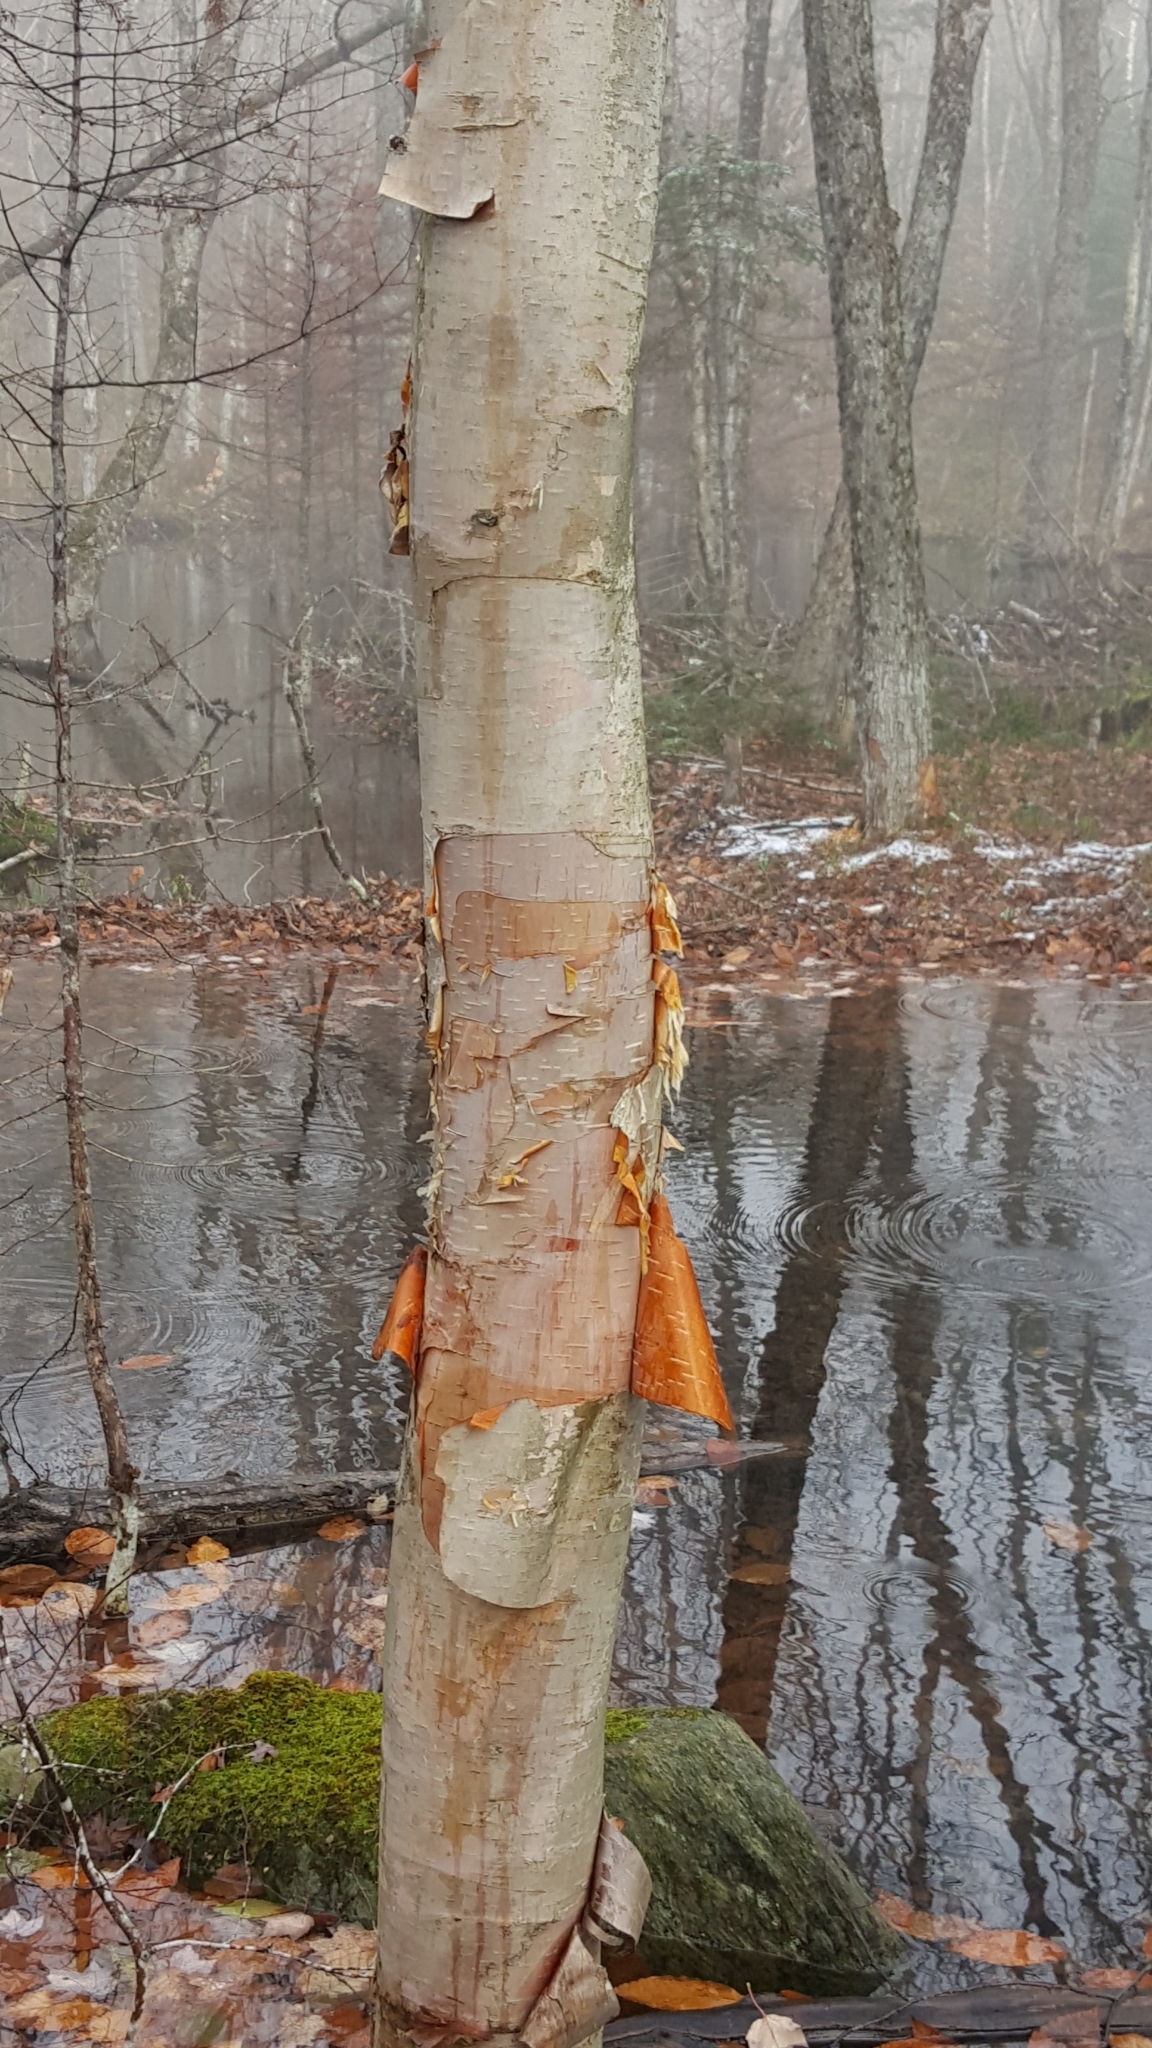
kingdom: Plantae
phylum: Tracheophyta
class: Magnoliopsida
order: Fagales
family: Betulaceae
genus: Betula
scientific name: Betula cordifolia
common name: Mountain white birch
